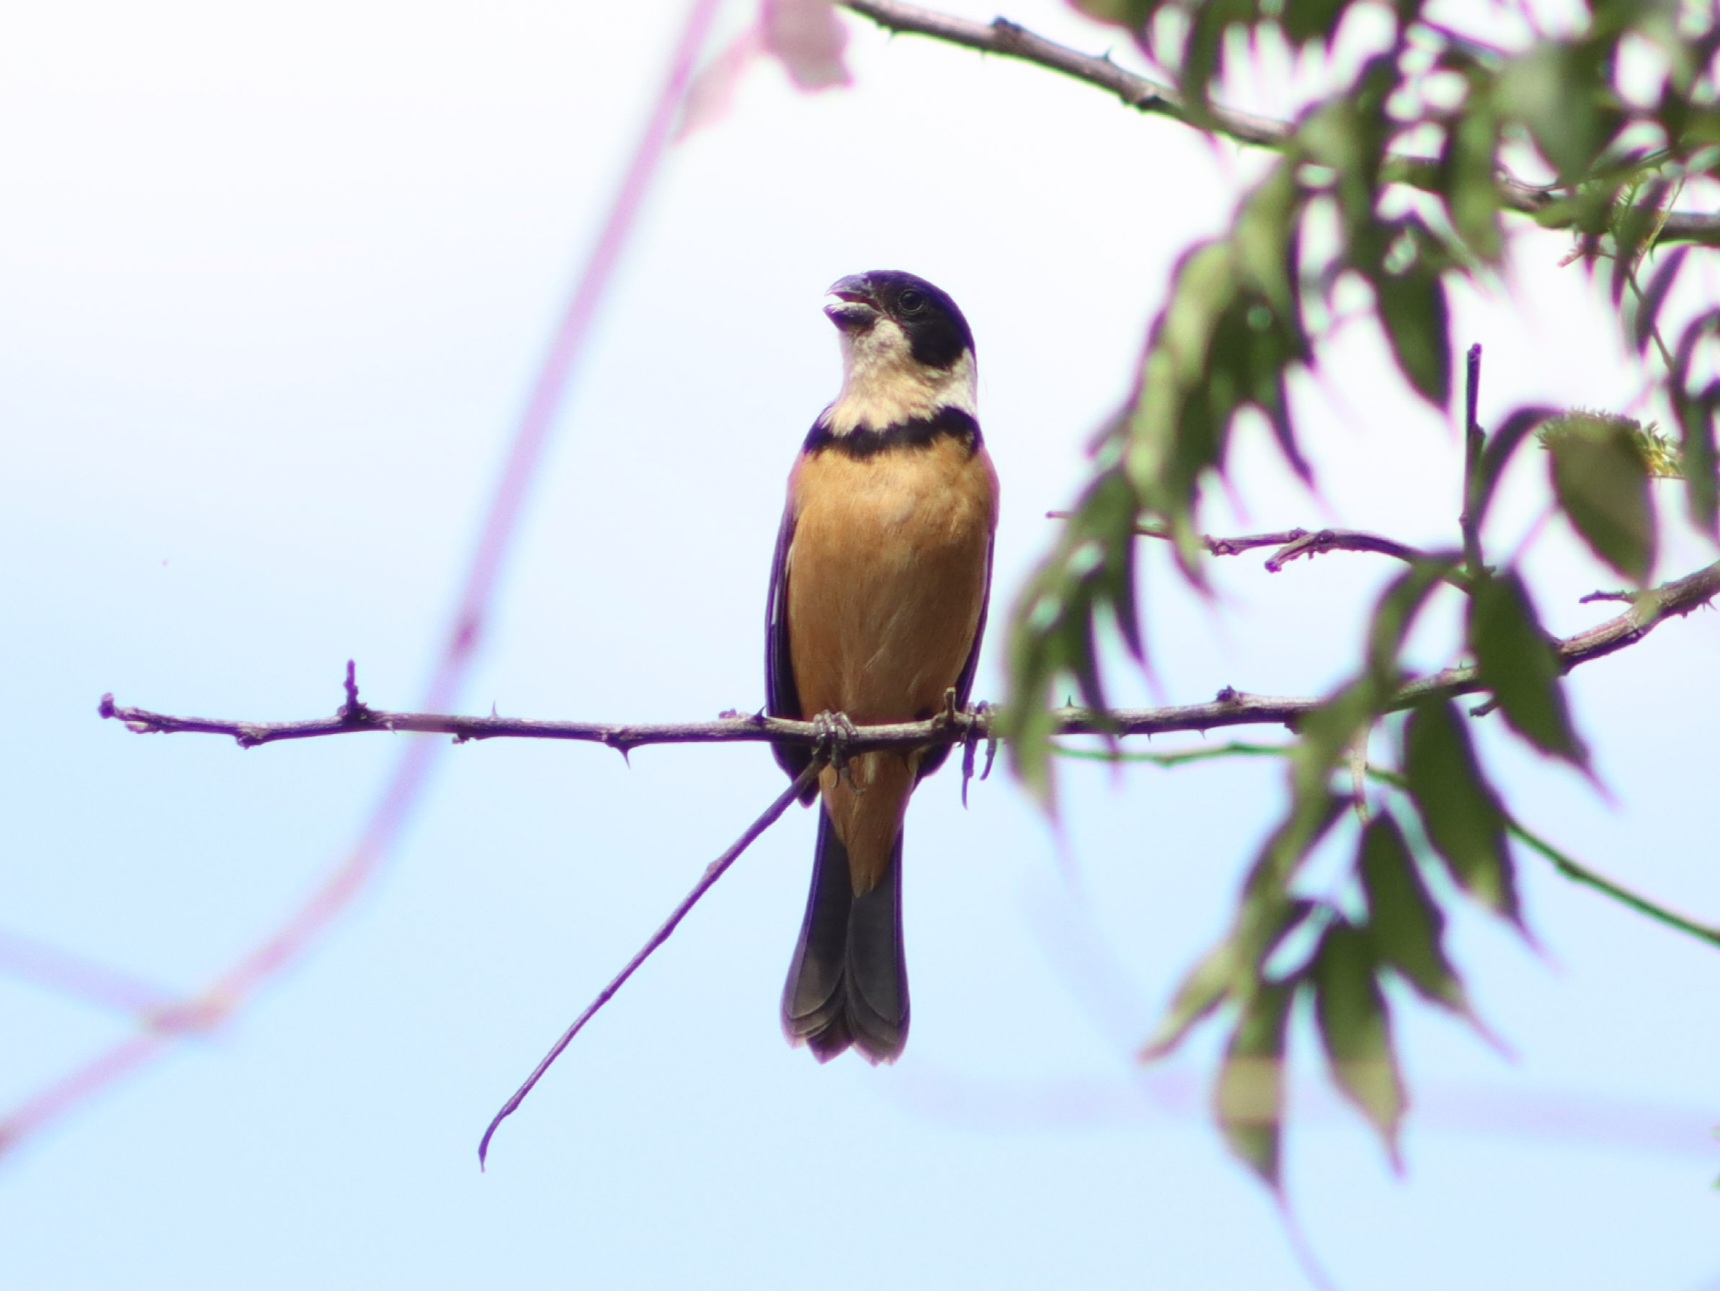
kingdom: Animalia
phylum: Chordata
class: Aves
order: Passeriformes
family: Thraupidae
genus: Sporophila
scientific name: Sporophila torqueola
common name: White-collared seedeater
